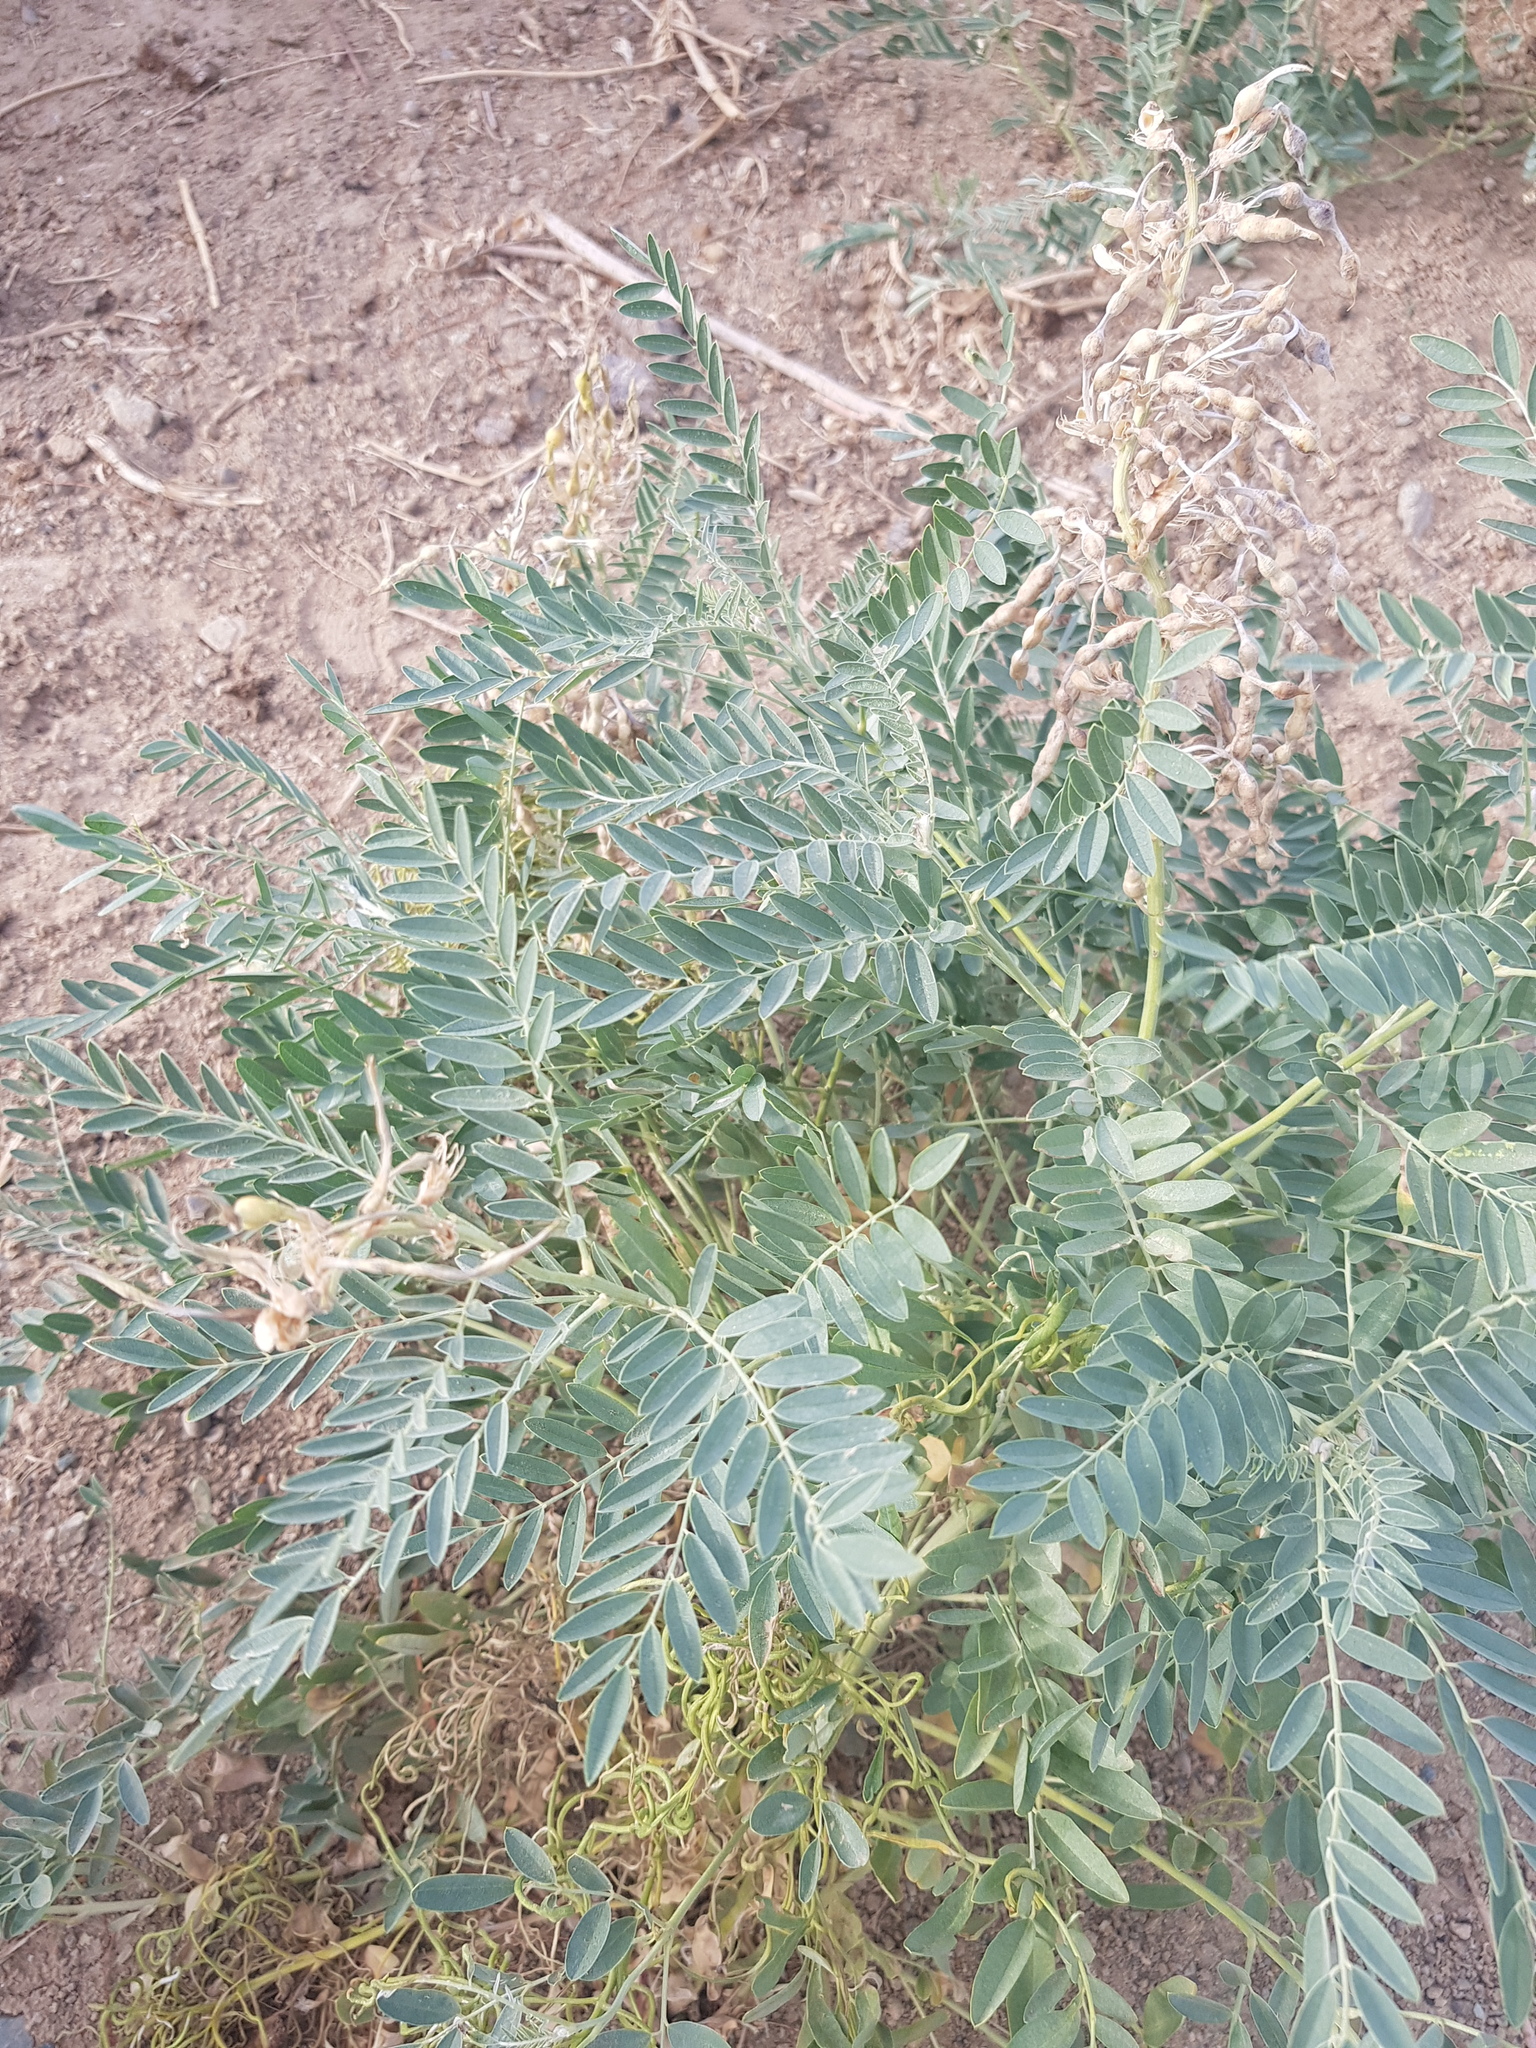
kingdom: Plantae
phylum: Tracheophyta
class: Magnoliopsida
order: Fabales
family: Fabaceae
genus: Sophora
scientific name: Sophora alopecuroides
